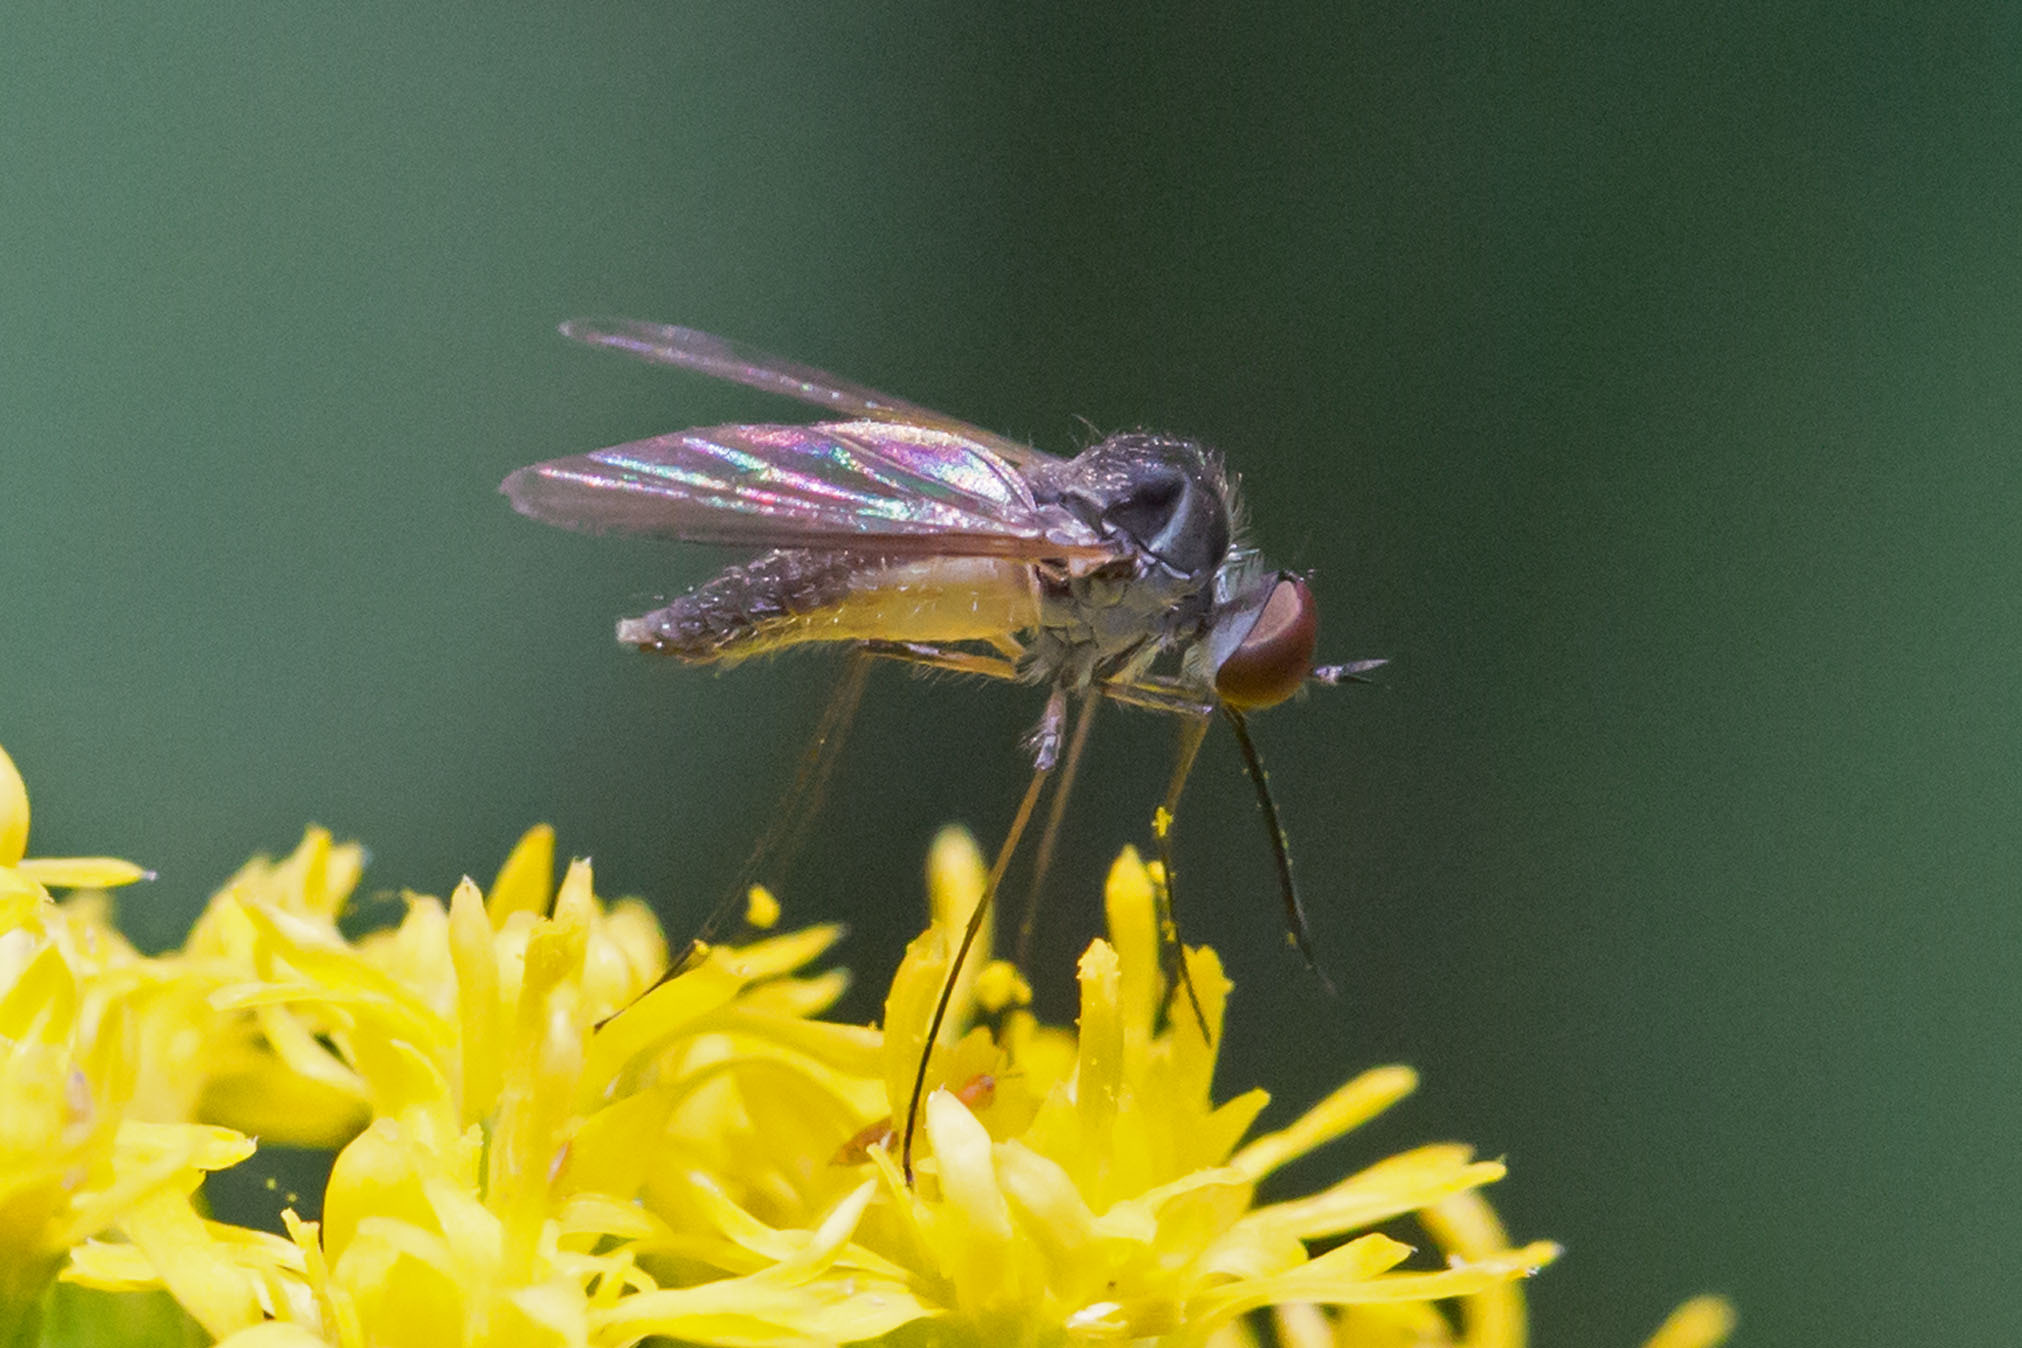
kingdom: Animalia
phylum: Arthropoda
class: Insecta
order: Diptera
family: Bombyliidae
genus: Geron
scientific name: Geron calvus
